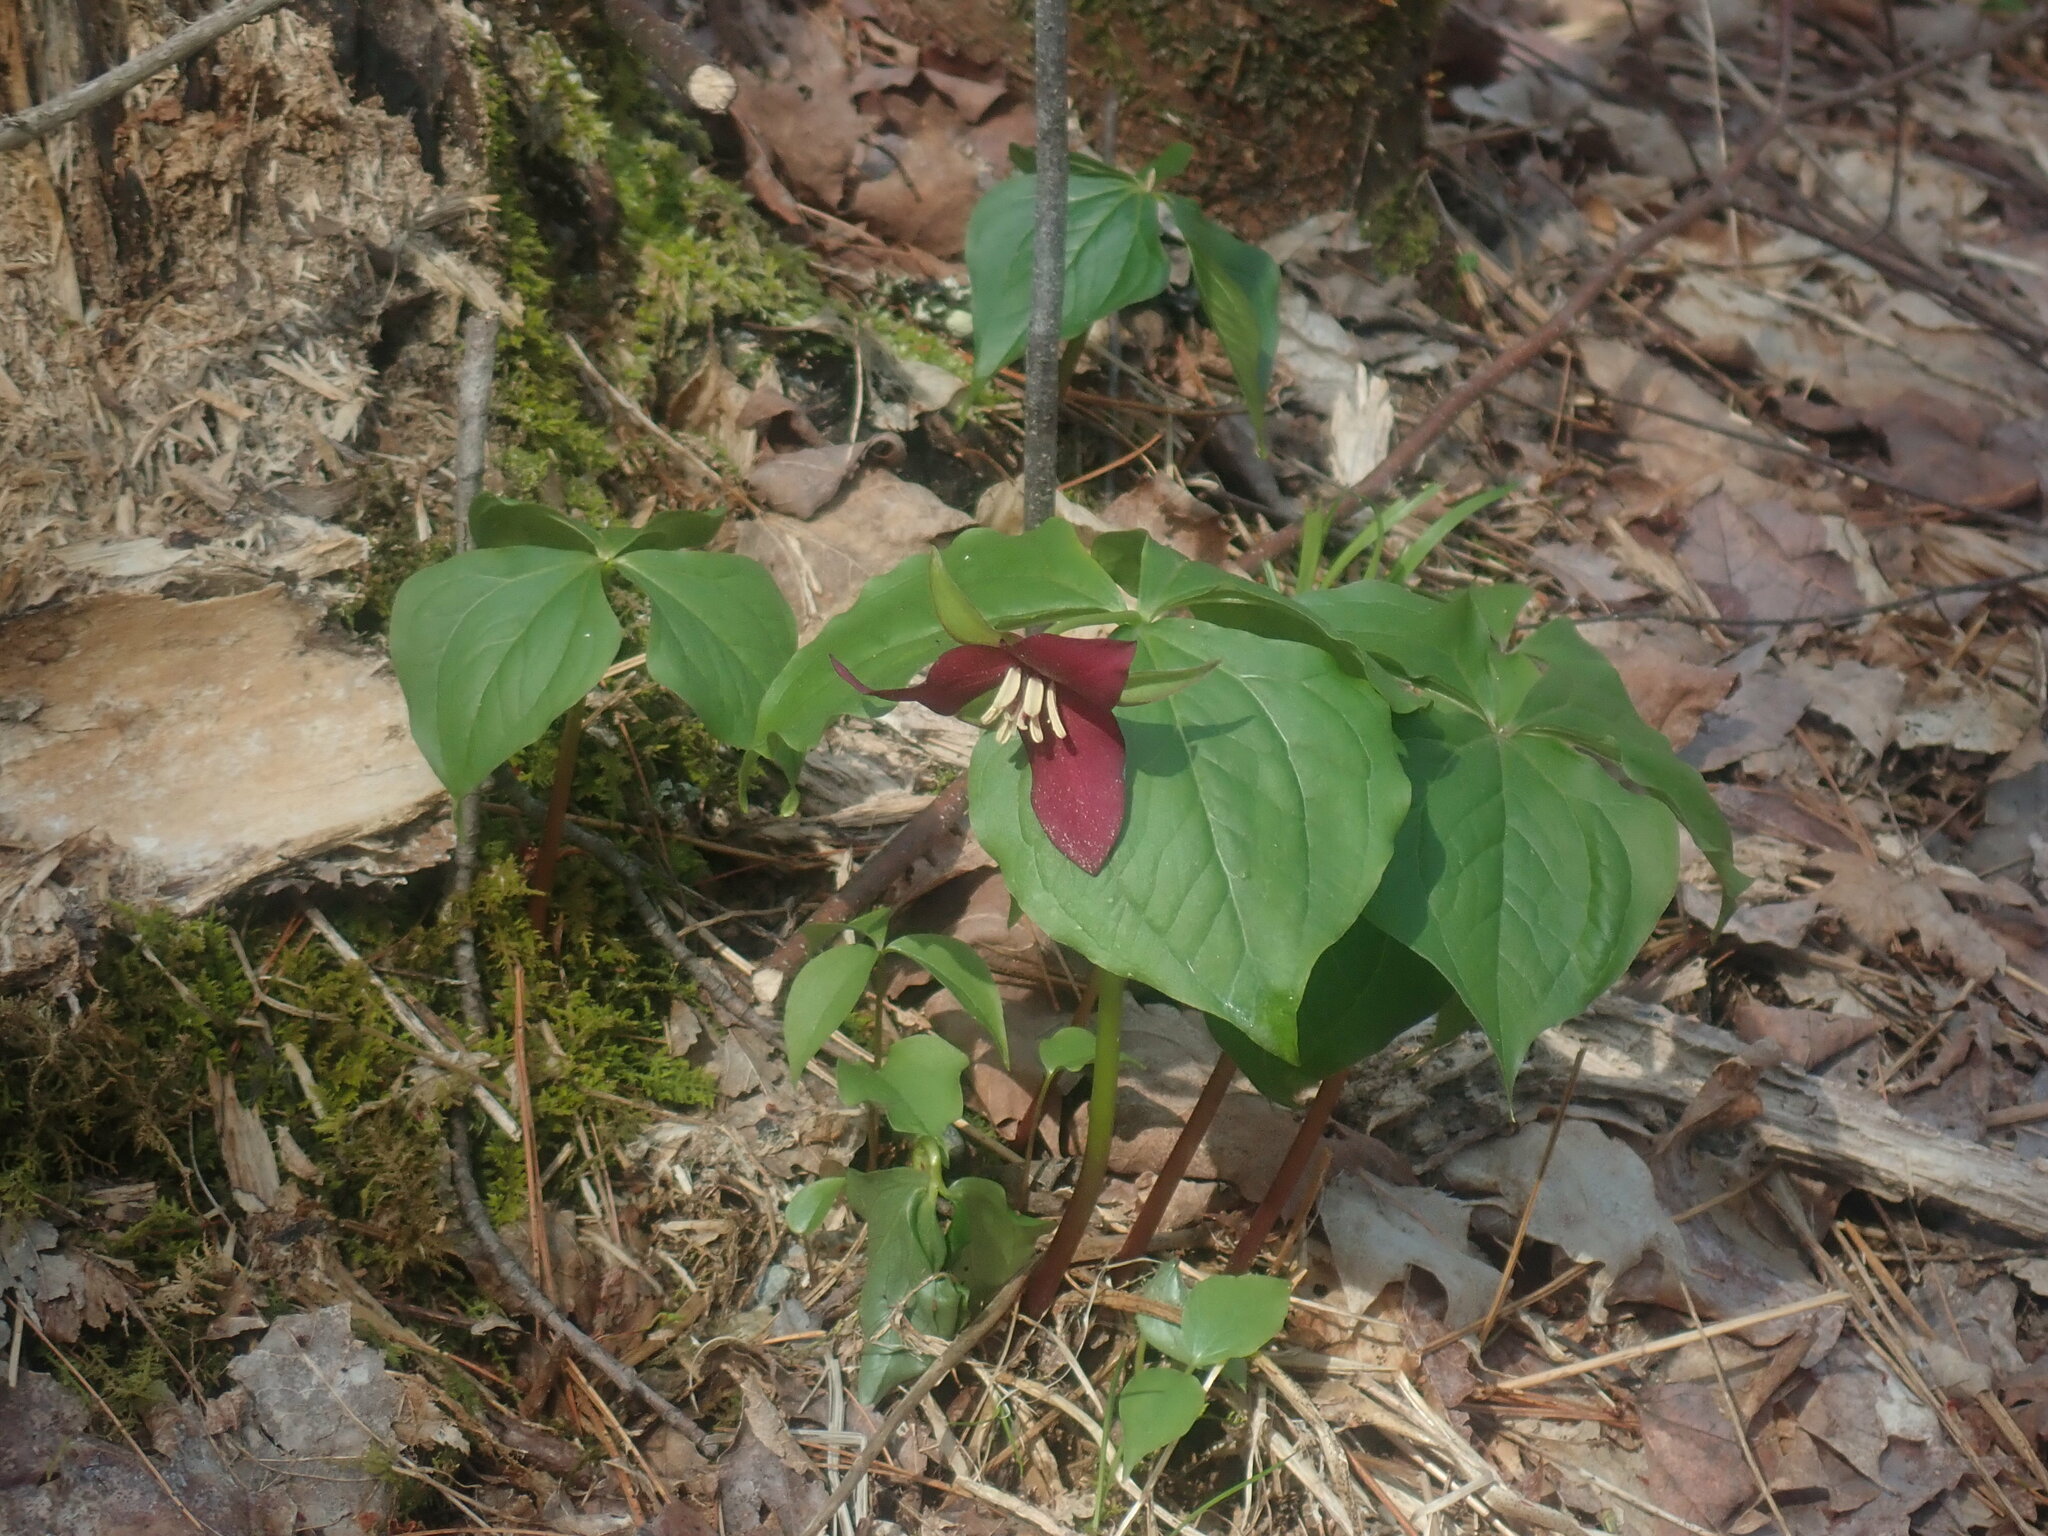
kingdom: Plantae
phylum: Tracheophyta
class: Liliopsida
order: Liliales
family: Melanthiaceae
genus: Trillium
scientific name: Trillium erectum
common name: Purple trillium
